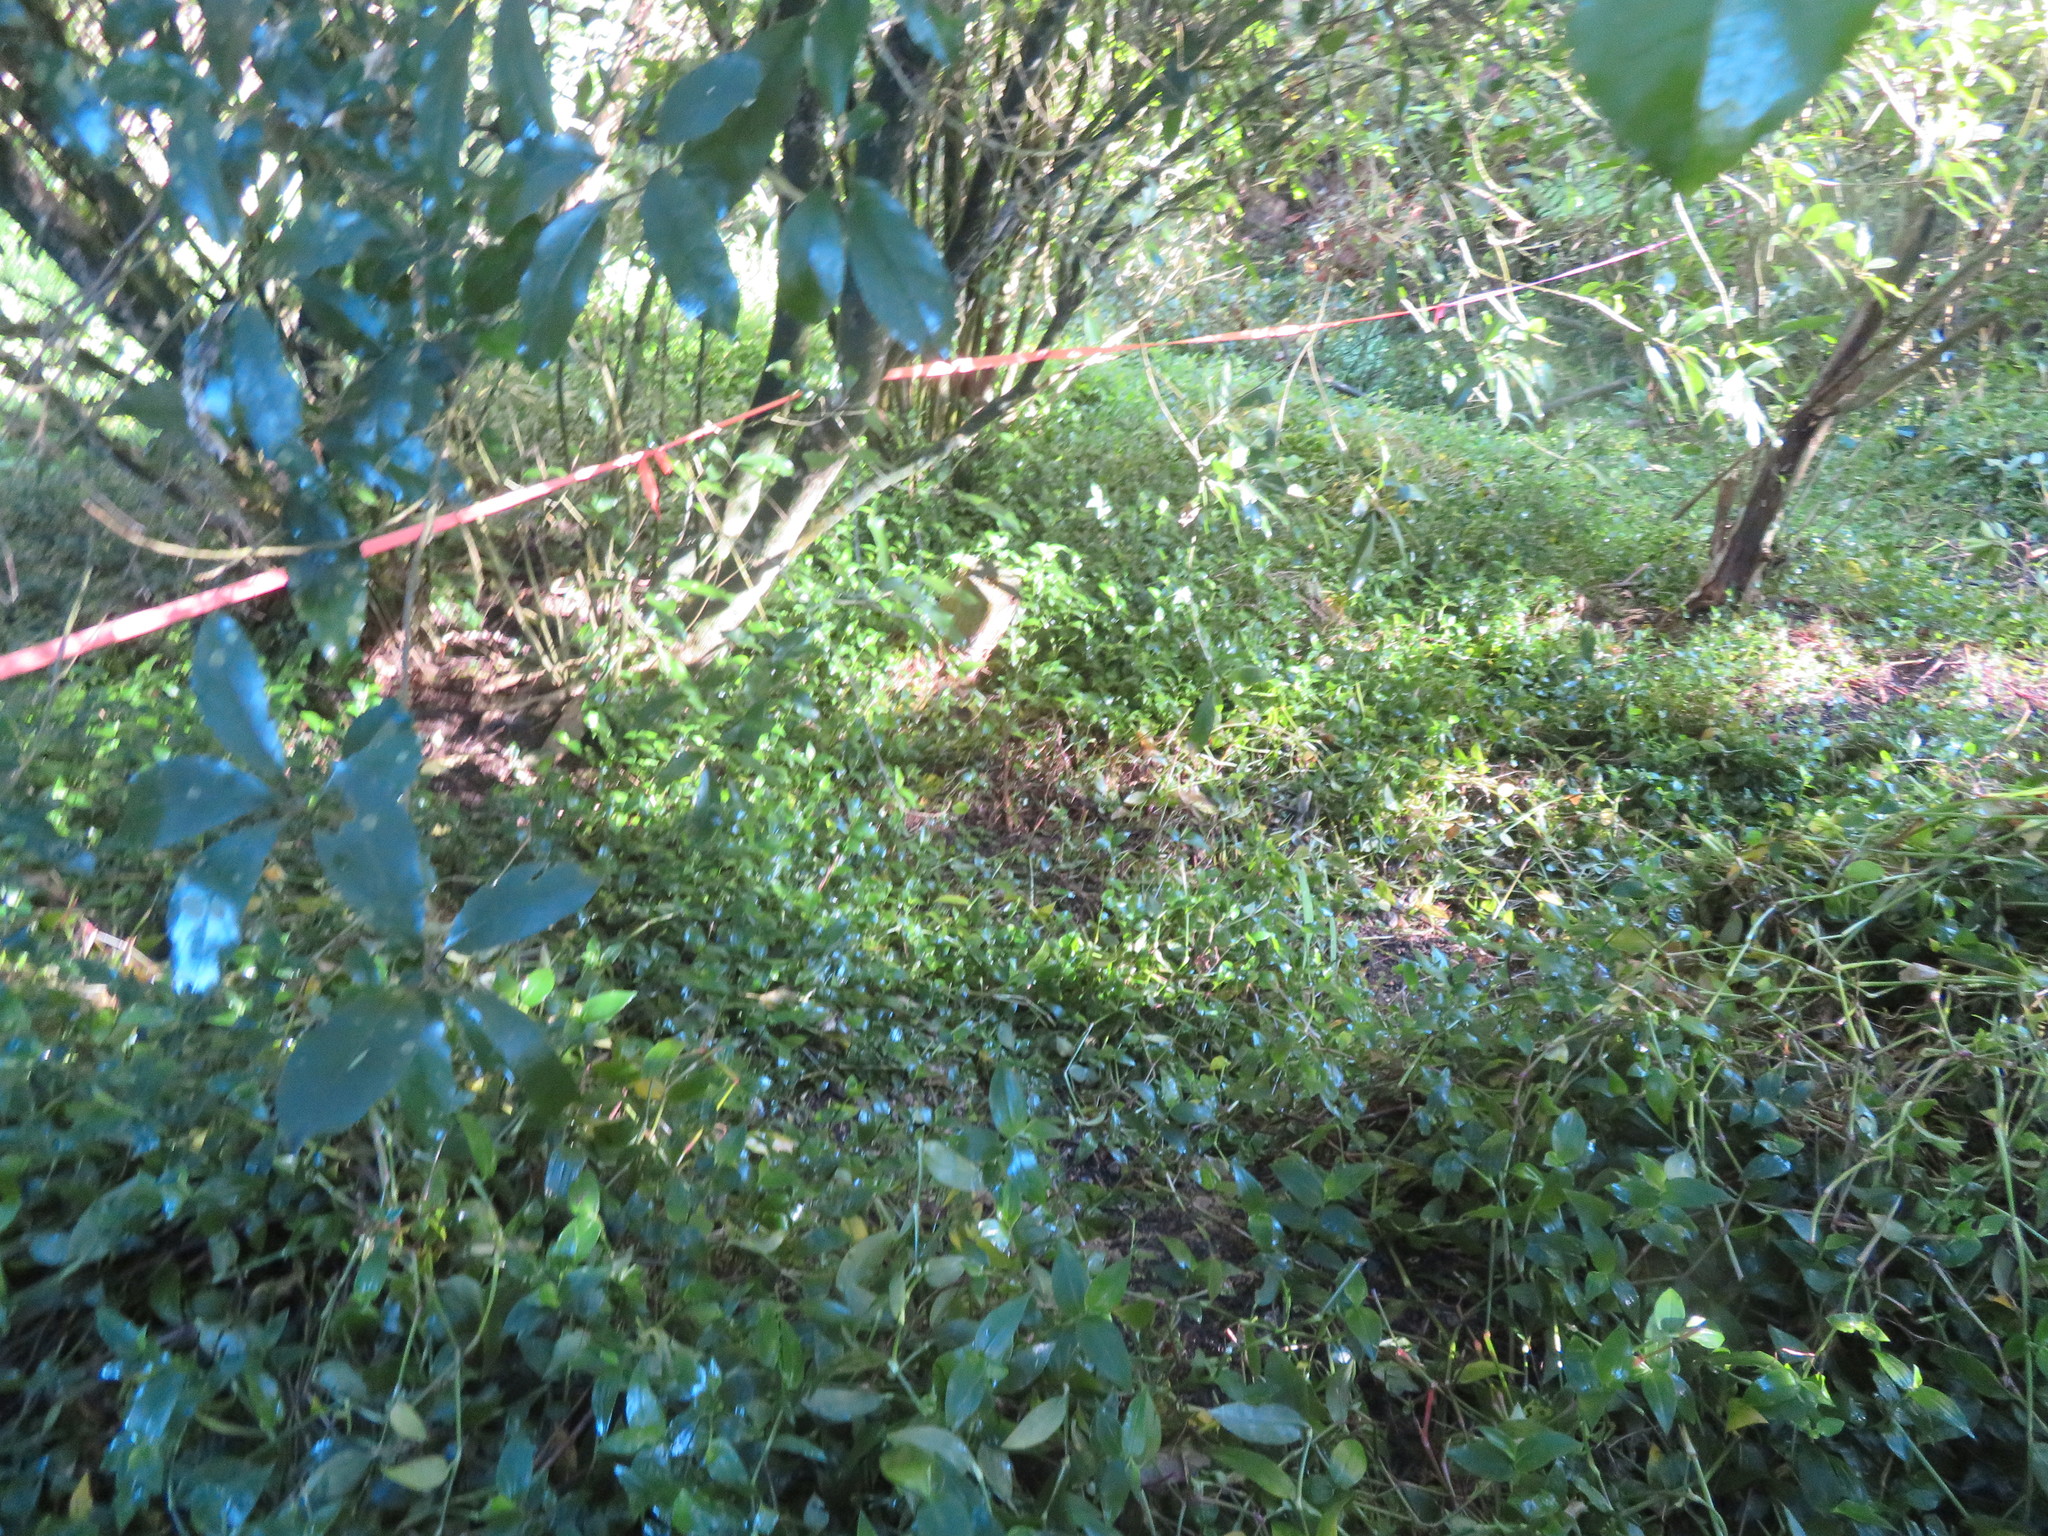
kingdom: Plantae
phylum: Tracheophyta
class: Liliopsida
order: Commelinales
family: Commelinaceae
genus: Tradescantia
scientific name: Tradescantia fluminensis
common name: Wandering-jew
